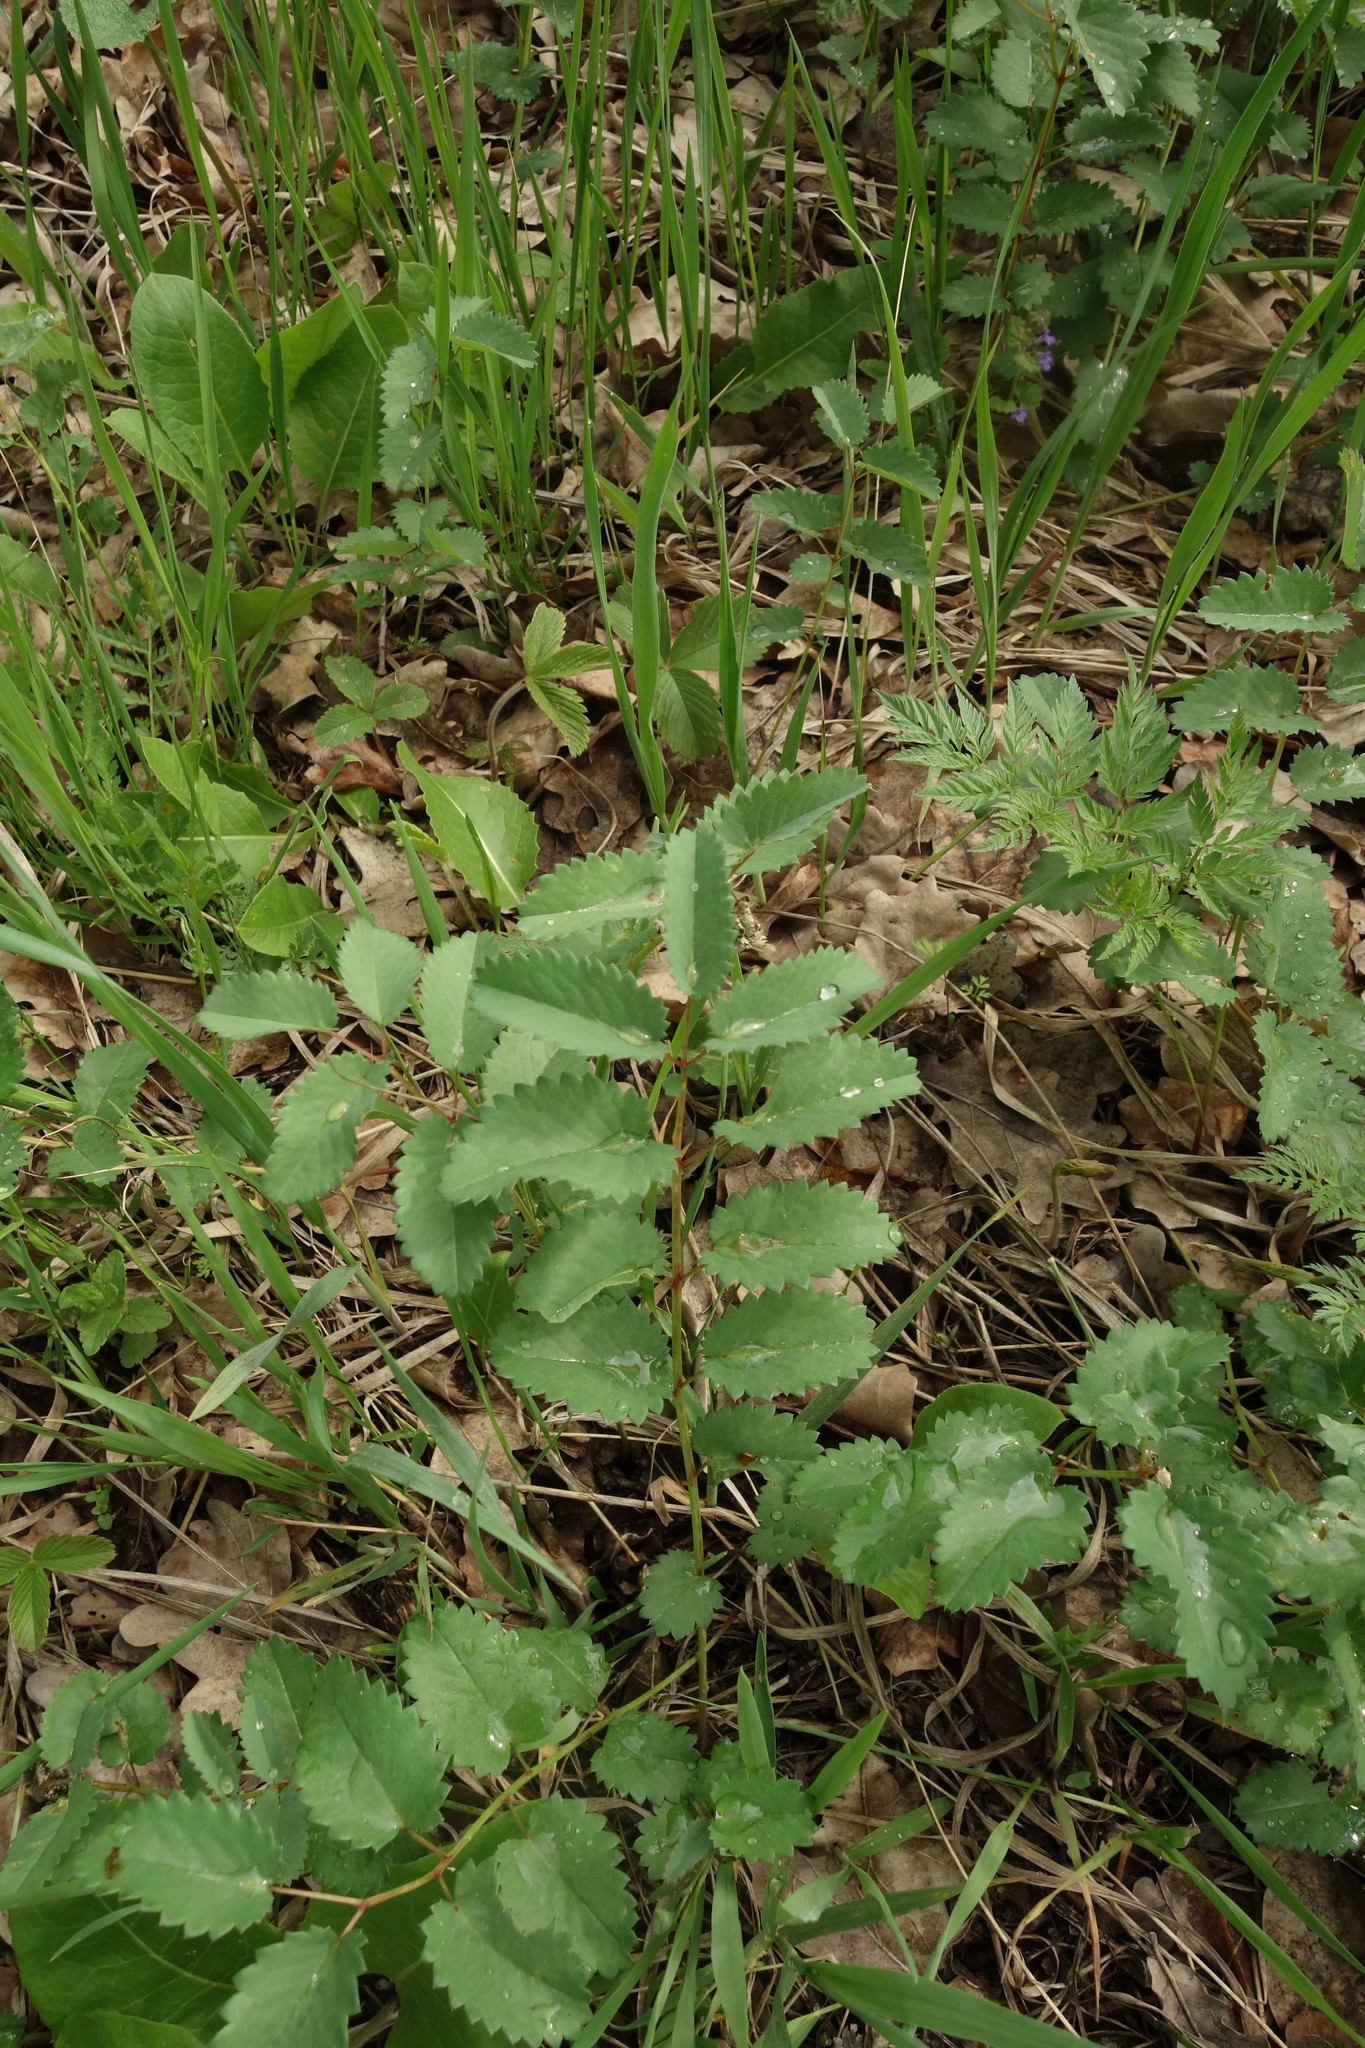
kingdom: Plantae
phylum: Tracheophyta
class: Magnoliopsida
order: Rosales
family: Rosaceae
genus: Sanguisorba
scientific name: Sanguisorba officinalis
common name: Great burnet
